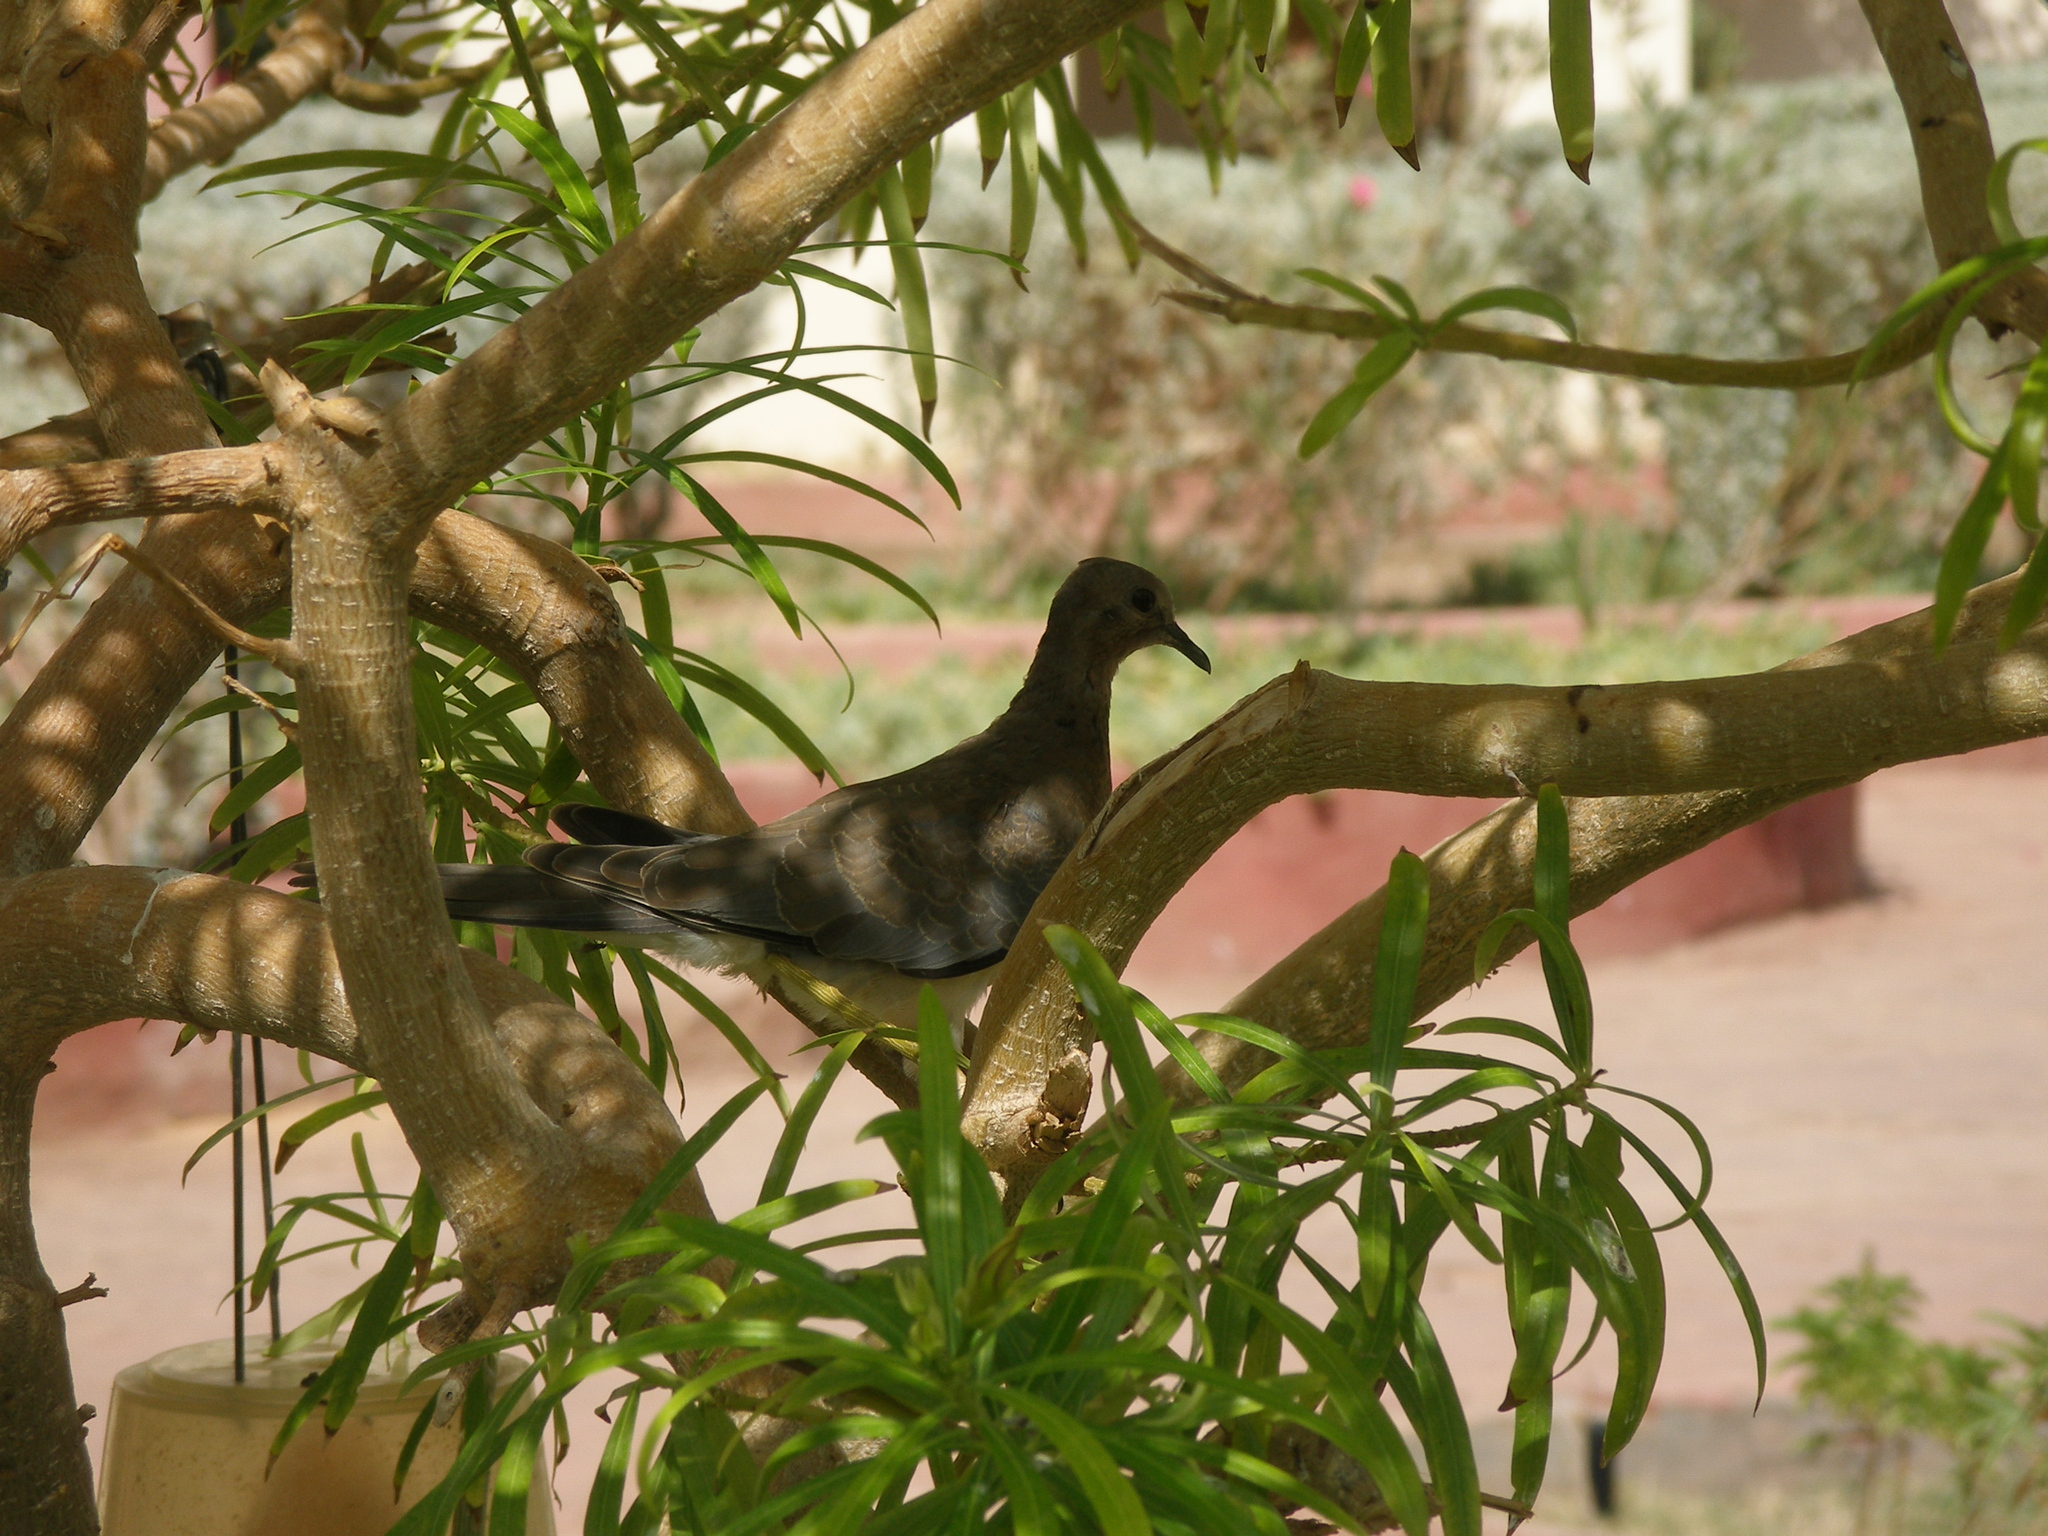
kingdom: Animalia
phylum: Chordata
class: Aves
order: Columbiformes
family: Columbidae
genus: Spilopelia
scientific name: Spilopelia senegalensis
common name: Laughing dove
